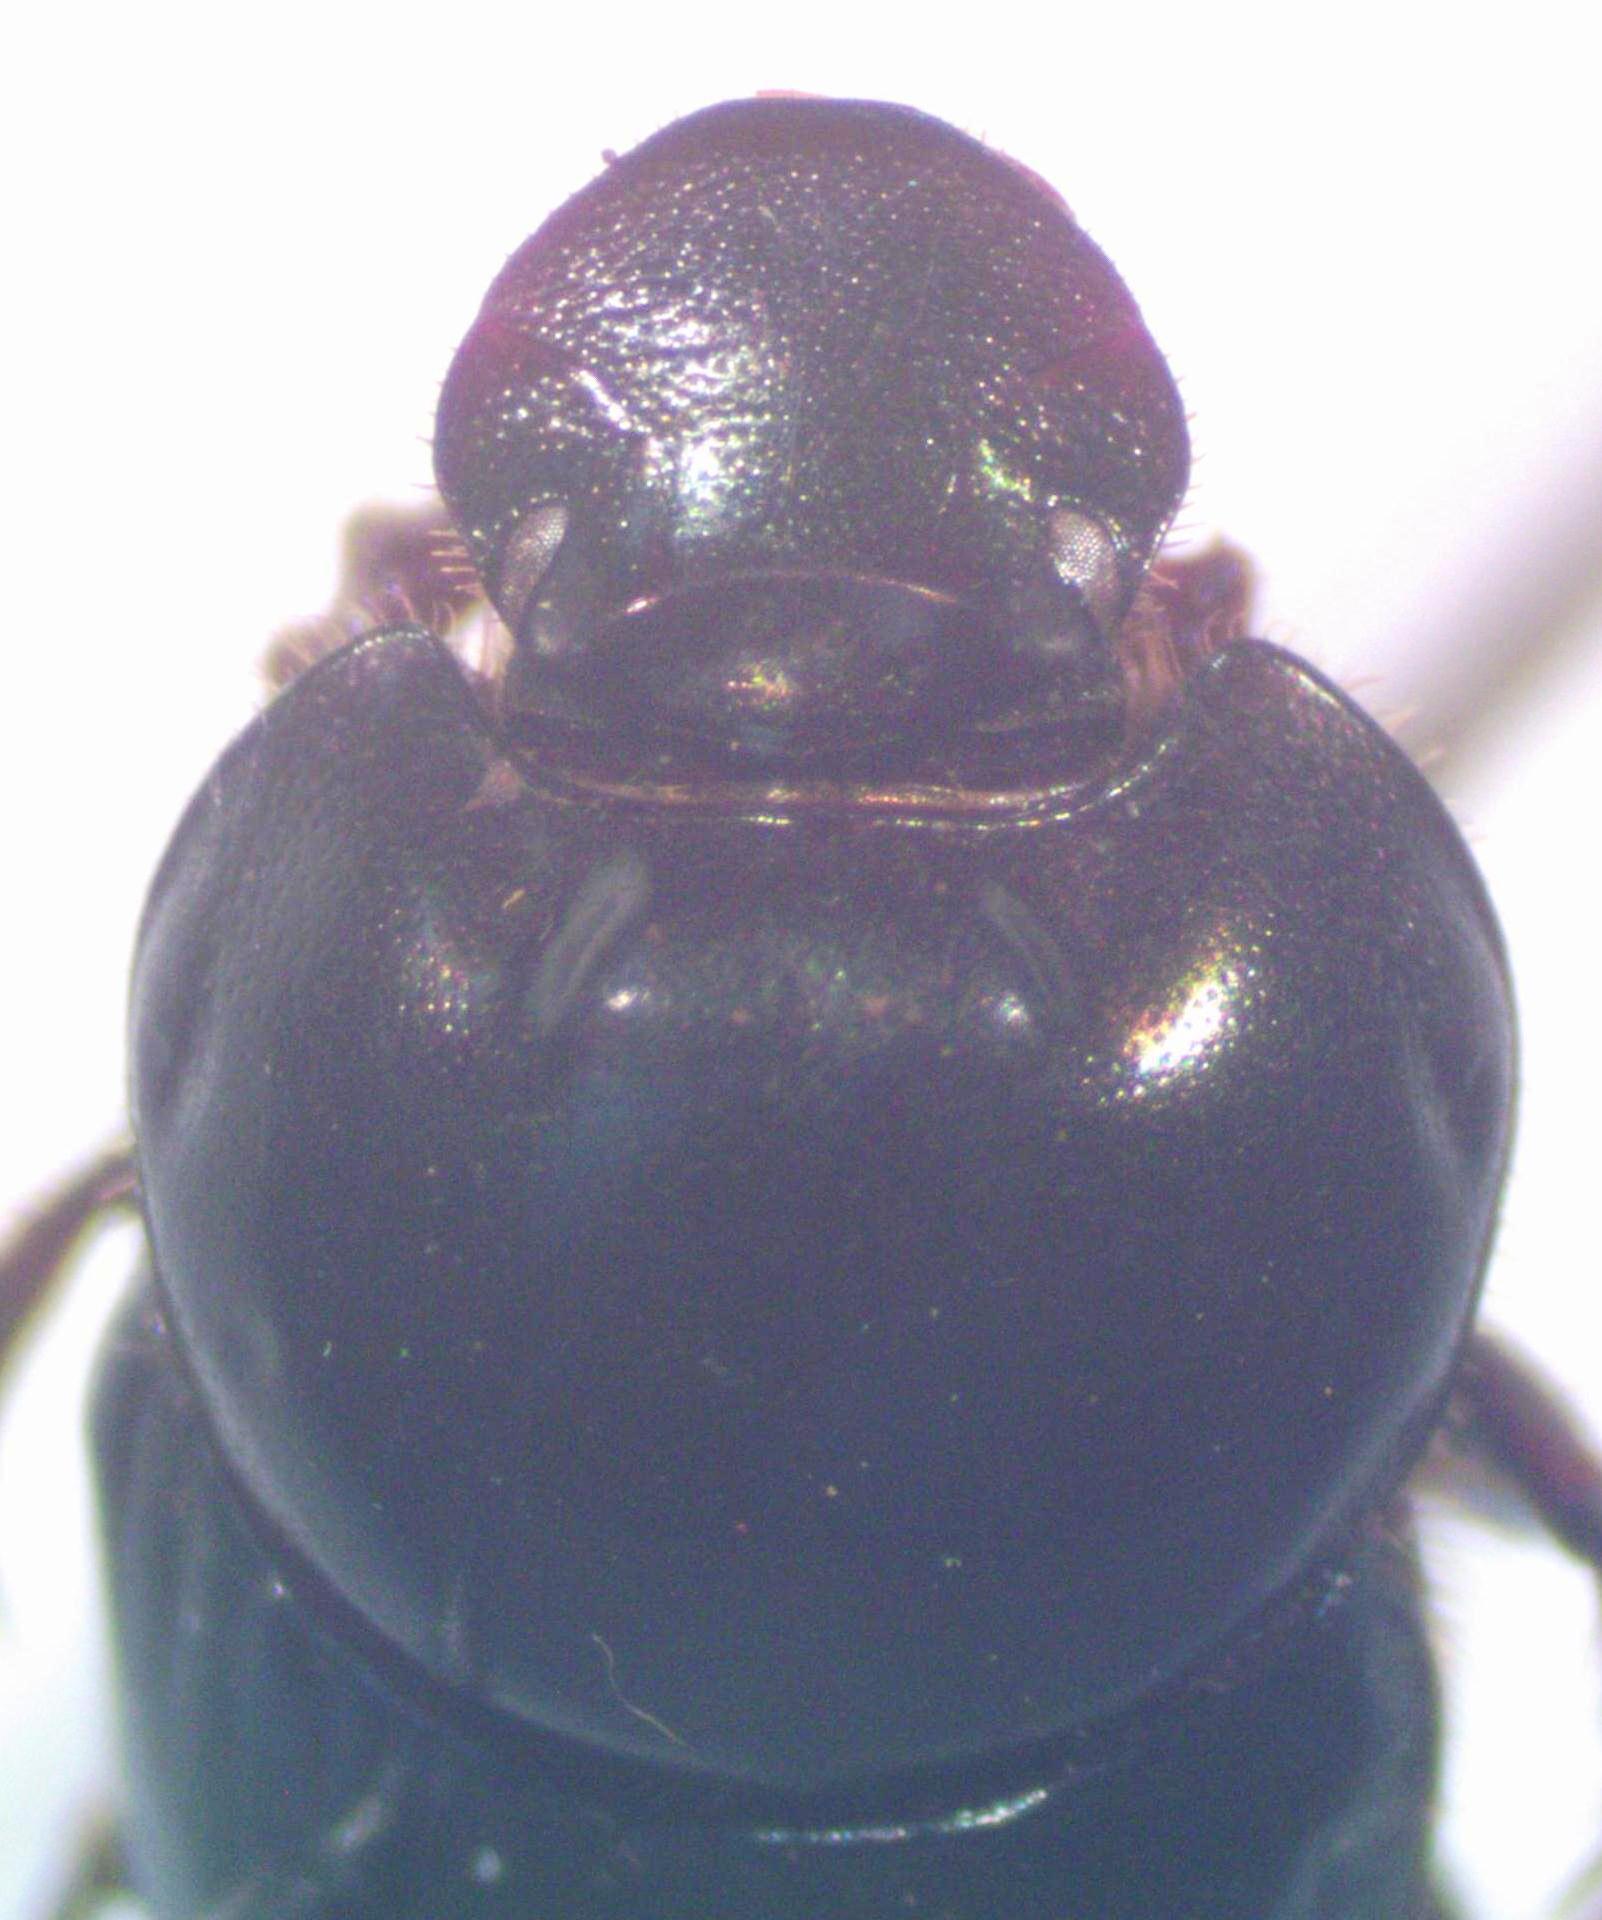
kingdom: Animalia
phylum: Arthropoda
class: Insecta
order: Coleoptera
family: Scarabaeidae
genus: Onthophagus
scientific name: Onthophagus batesi
